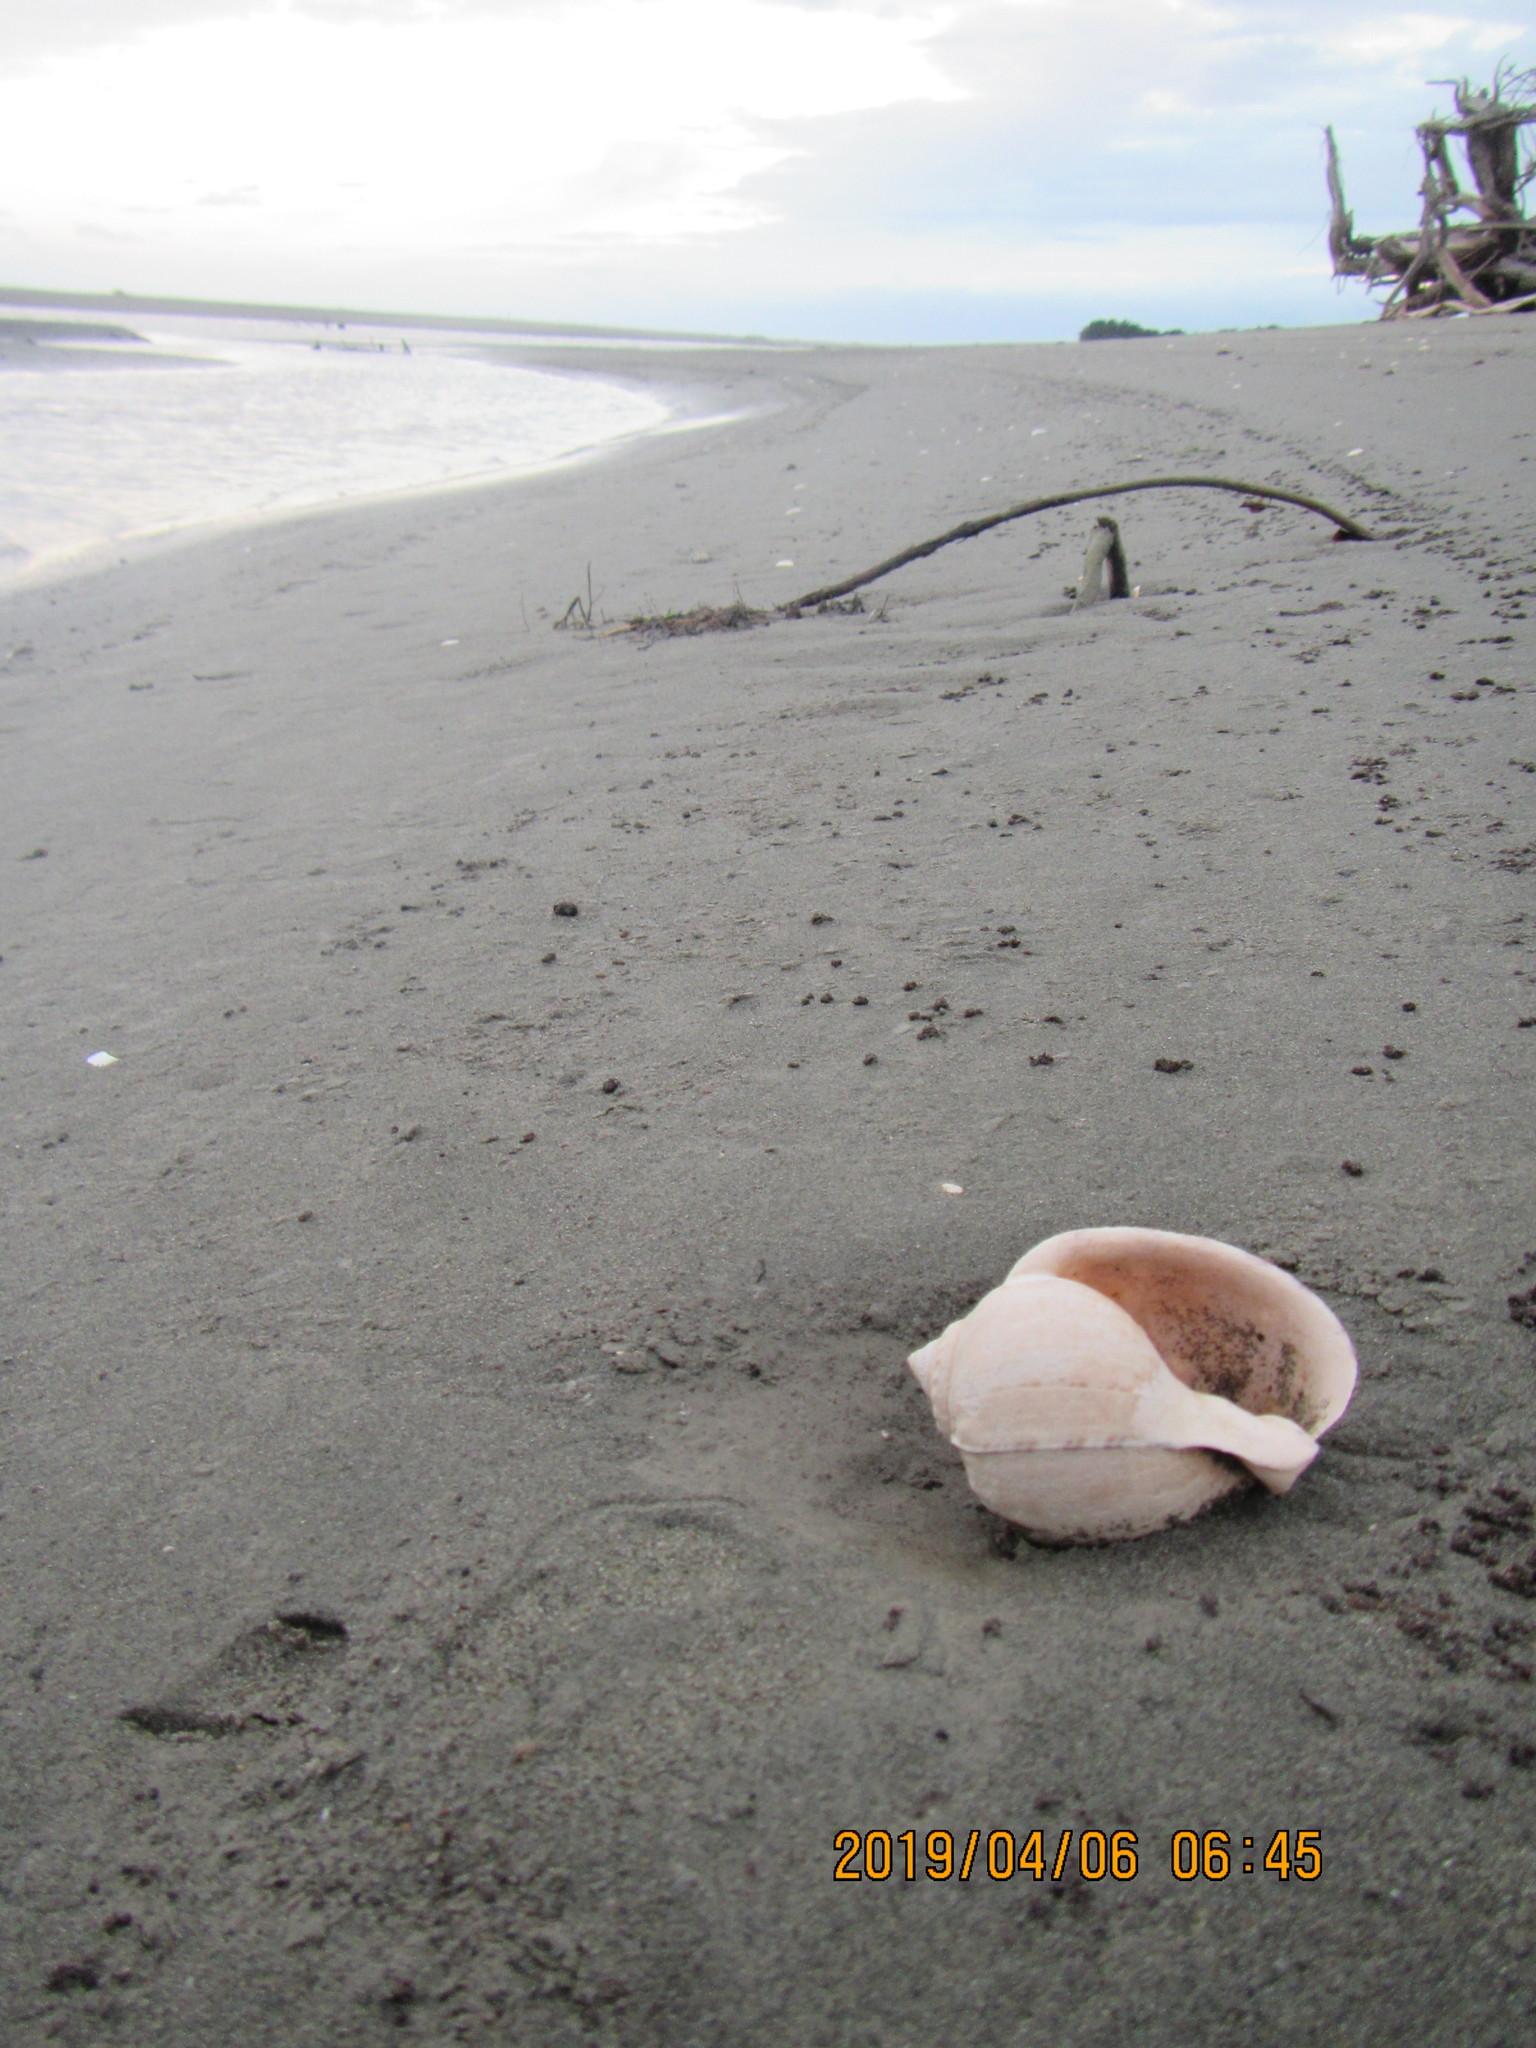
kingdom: Animalia
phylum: Mollusca
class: Gastropoda
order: Littorinimorpha
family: Cassidae
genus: Semicassis
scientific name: Semicassis pyrum
